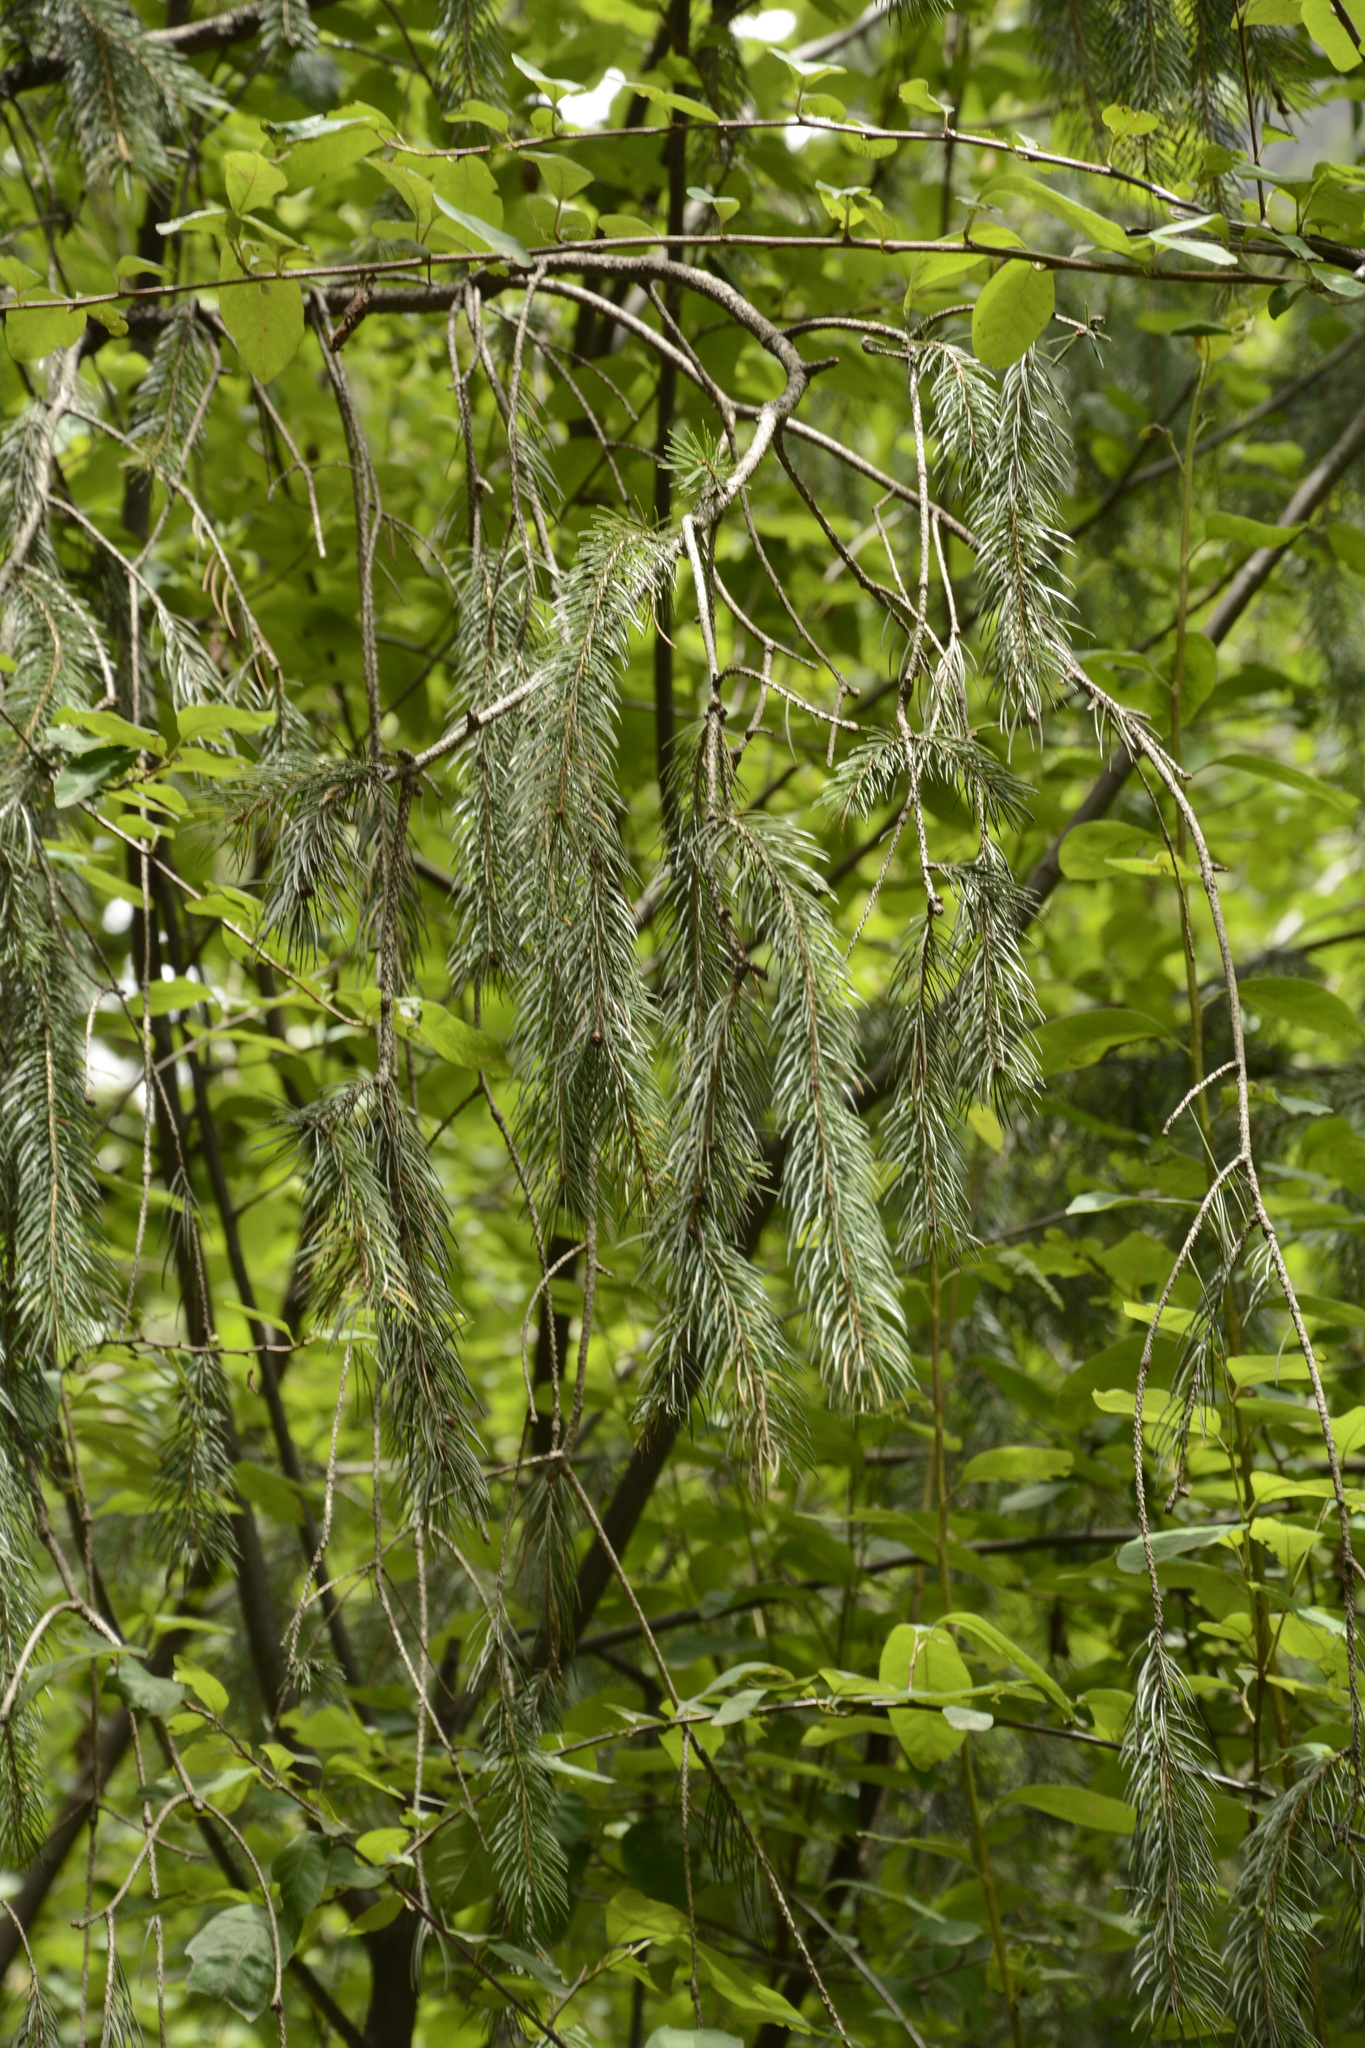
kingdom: Plantae
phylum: Tracheophyta
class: Pinopsida
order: Pinales
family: Pinaceae
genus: Picea
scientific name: Picea smithiana
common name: Morinda spruce
